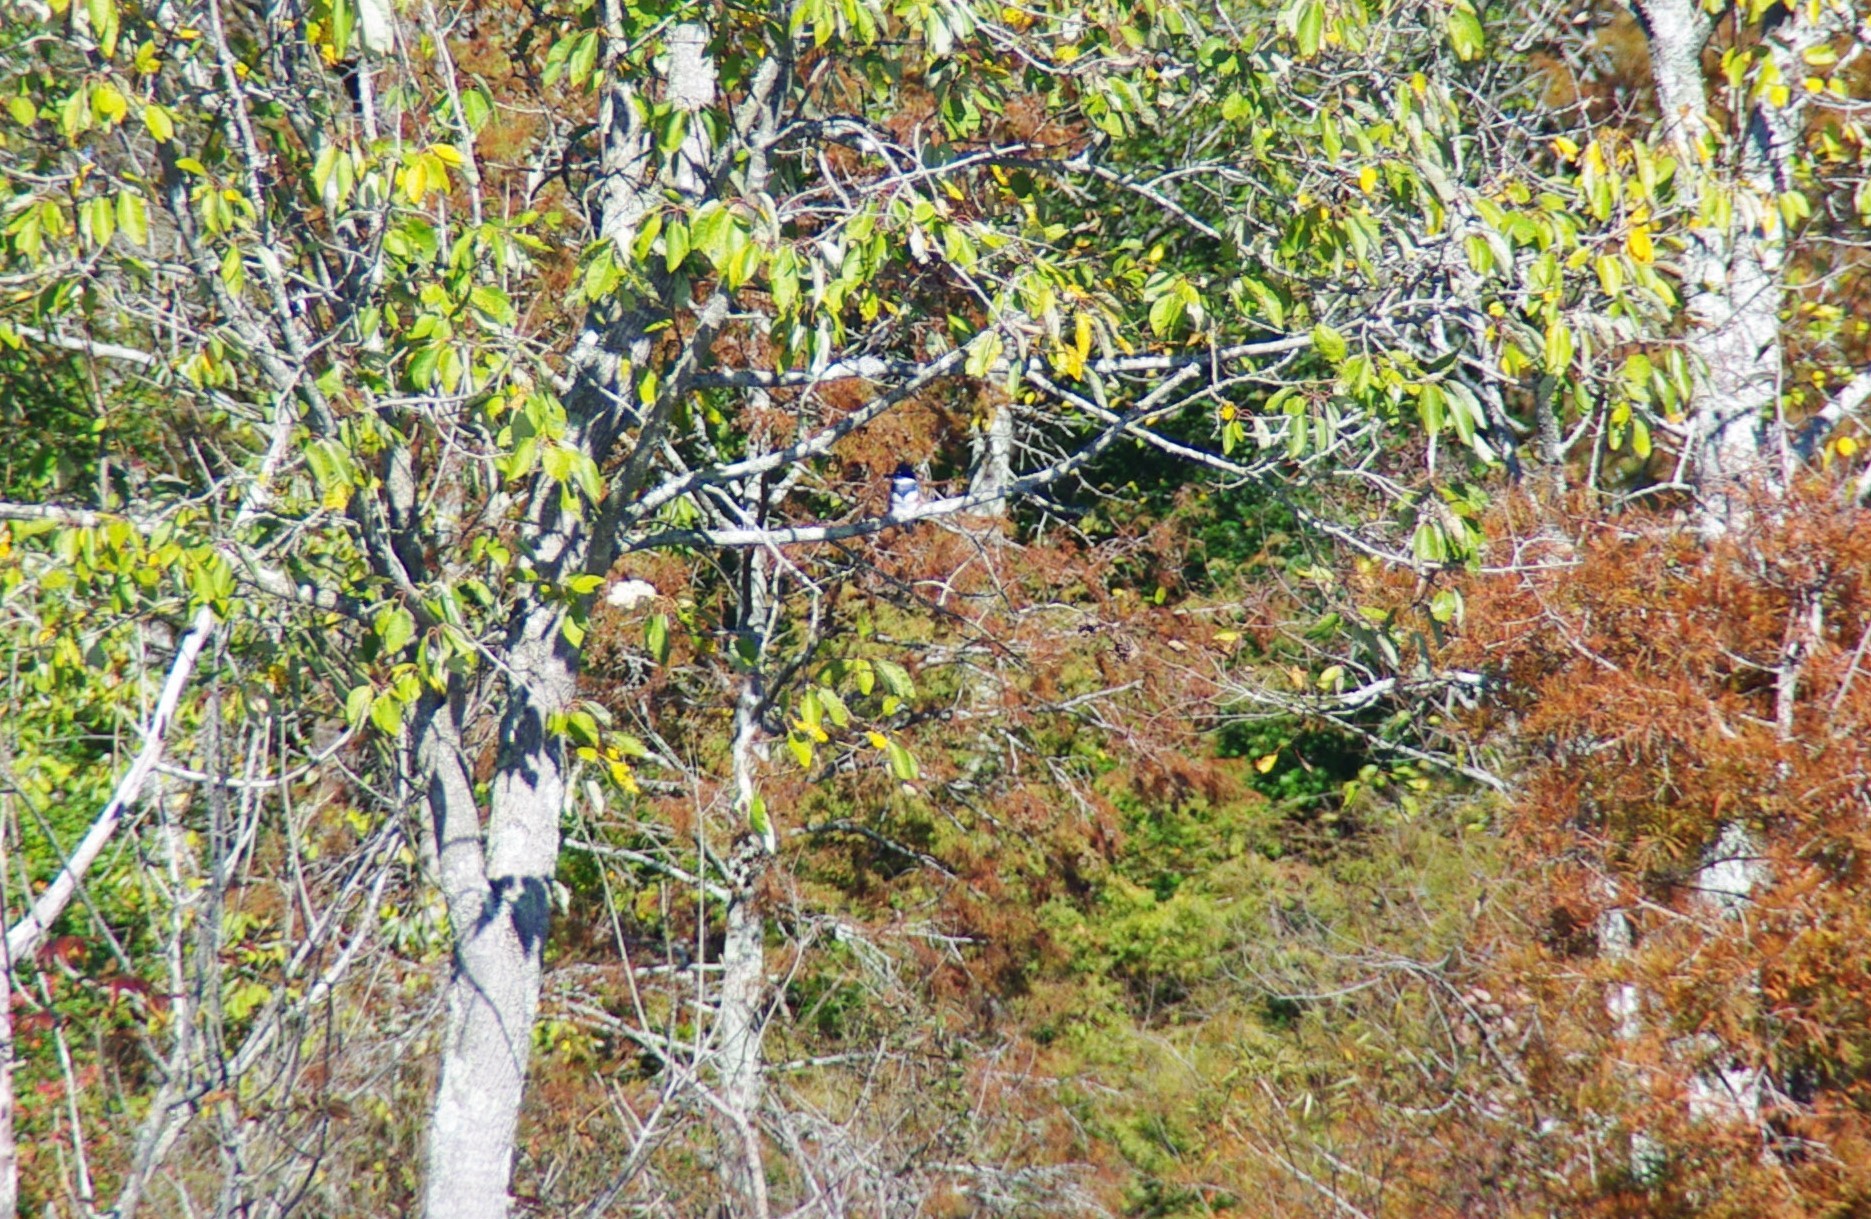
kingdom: Animalia
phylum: Chordata
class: Aves
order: Coraciiformes
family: Alcedinidae
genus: Megaceryle
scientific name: Megaceryle alcyon
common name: Belted kingfisher
